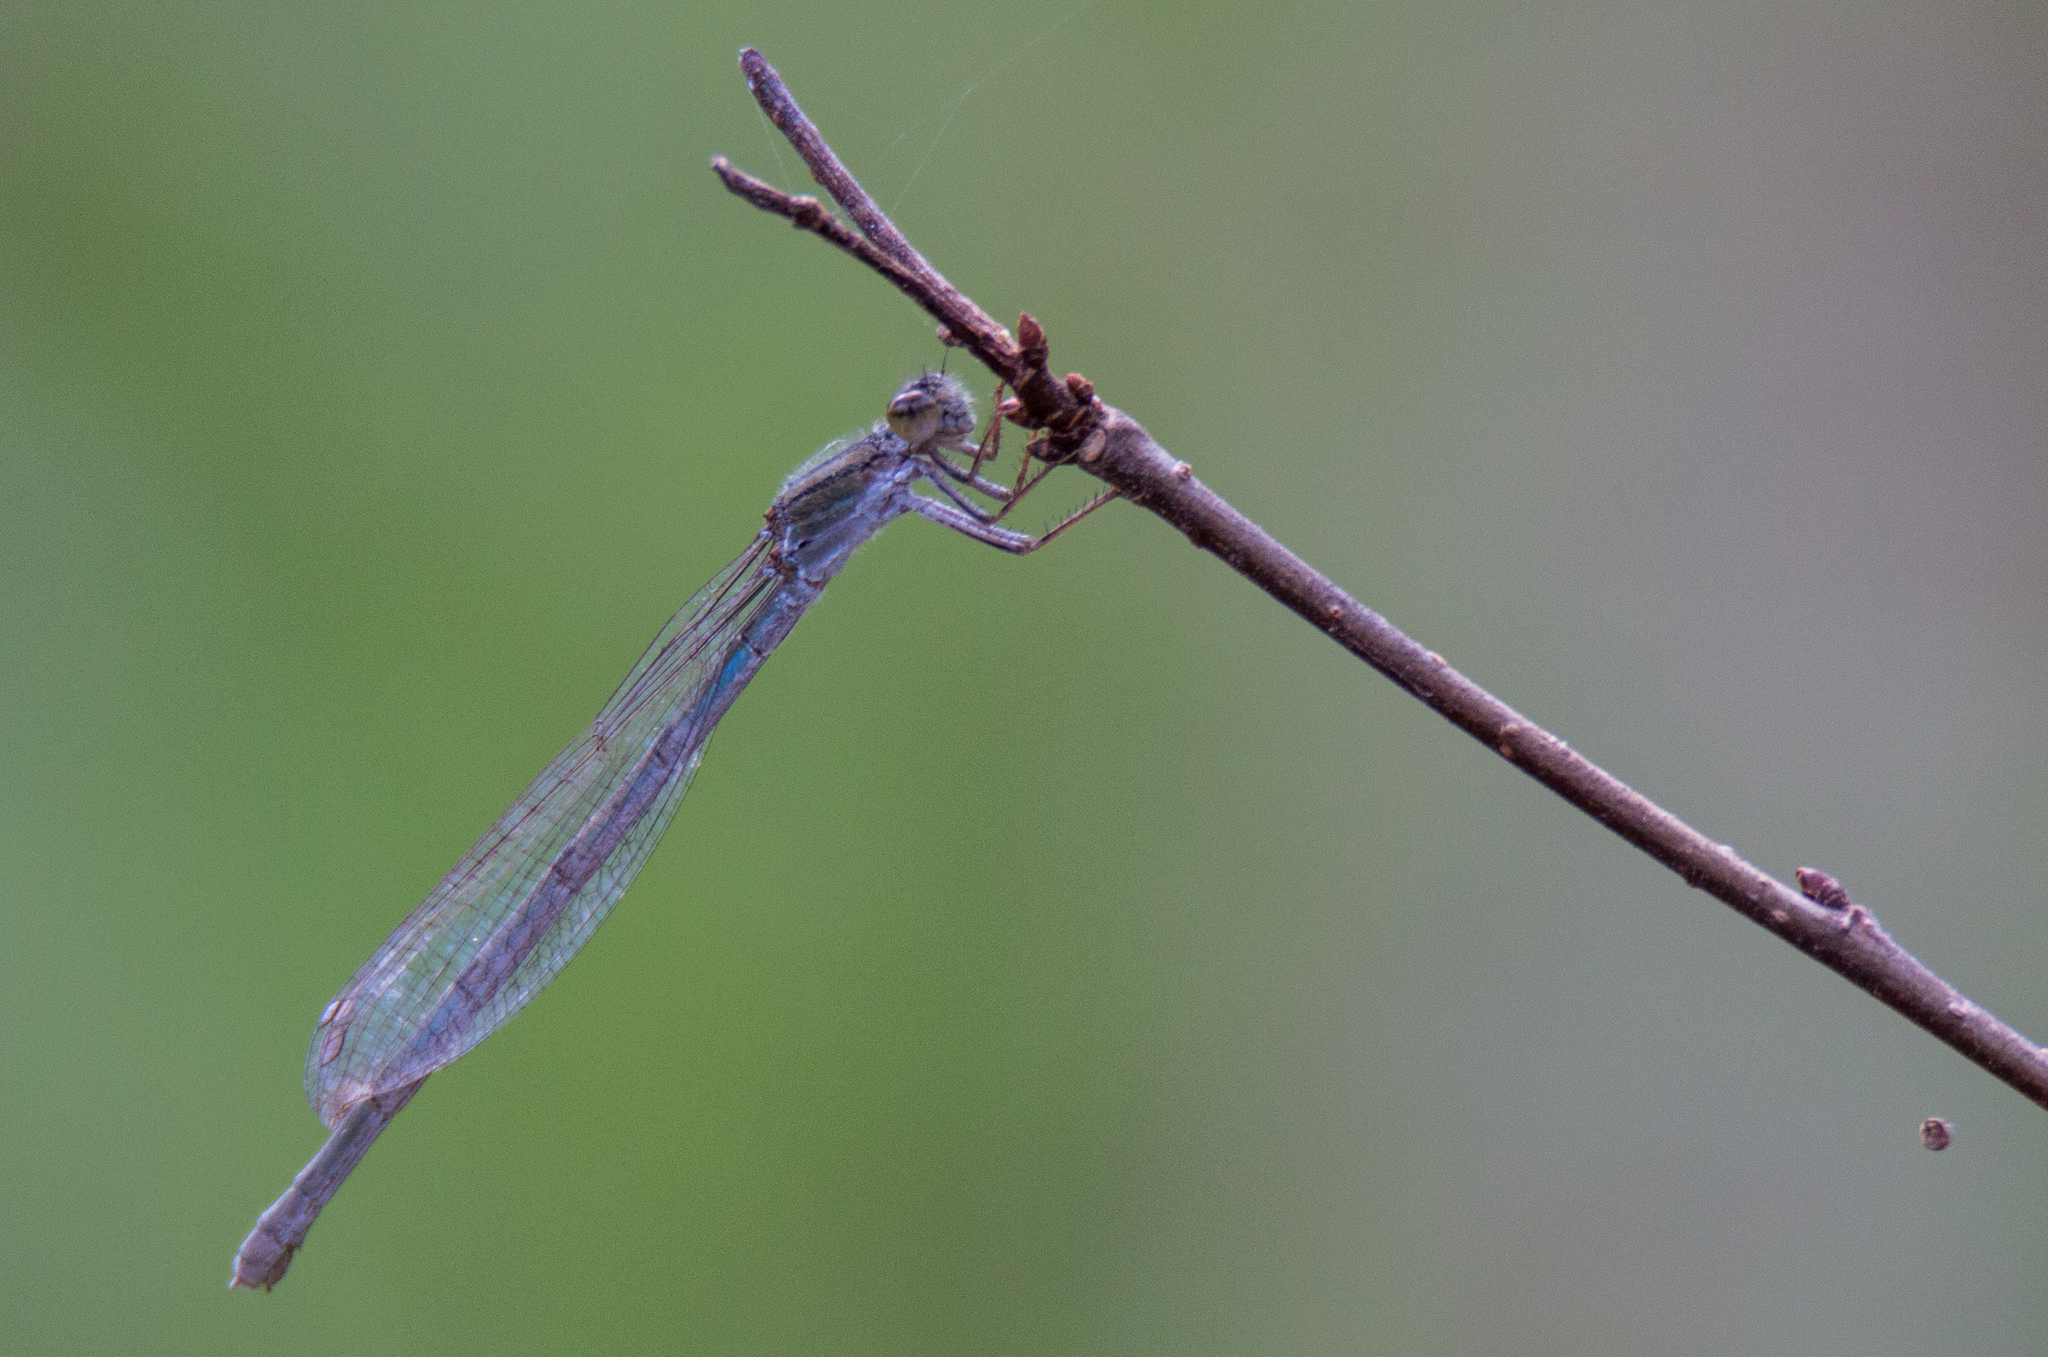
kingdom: Animalia
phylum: Arthropoda
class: Insecta
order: Odonata
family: Coenagrionidae
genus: Enallagma
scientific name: Enallagma civile
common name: Damselfly
